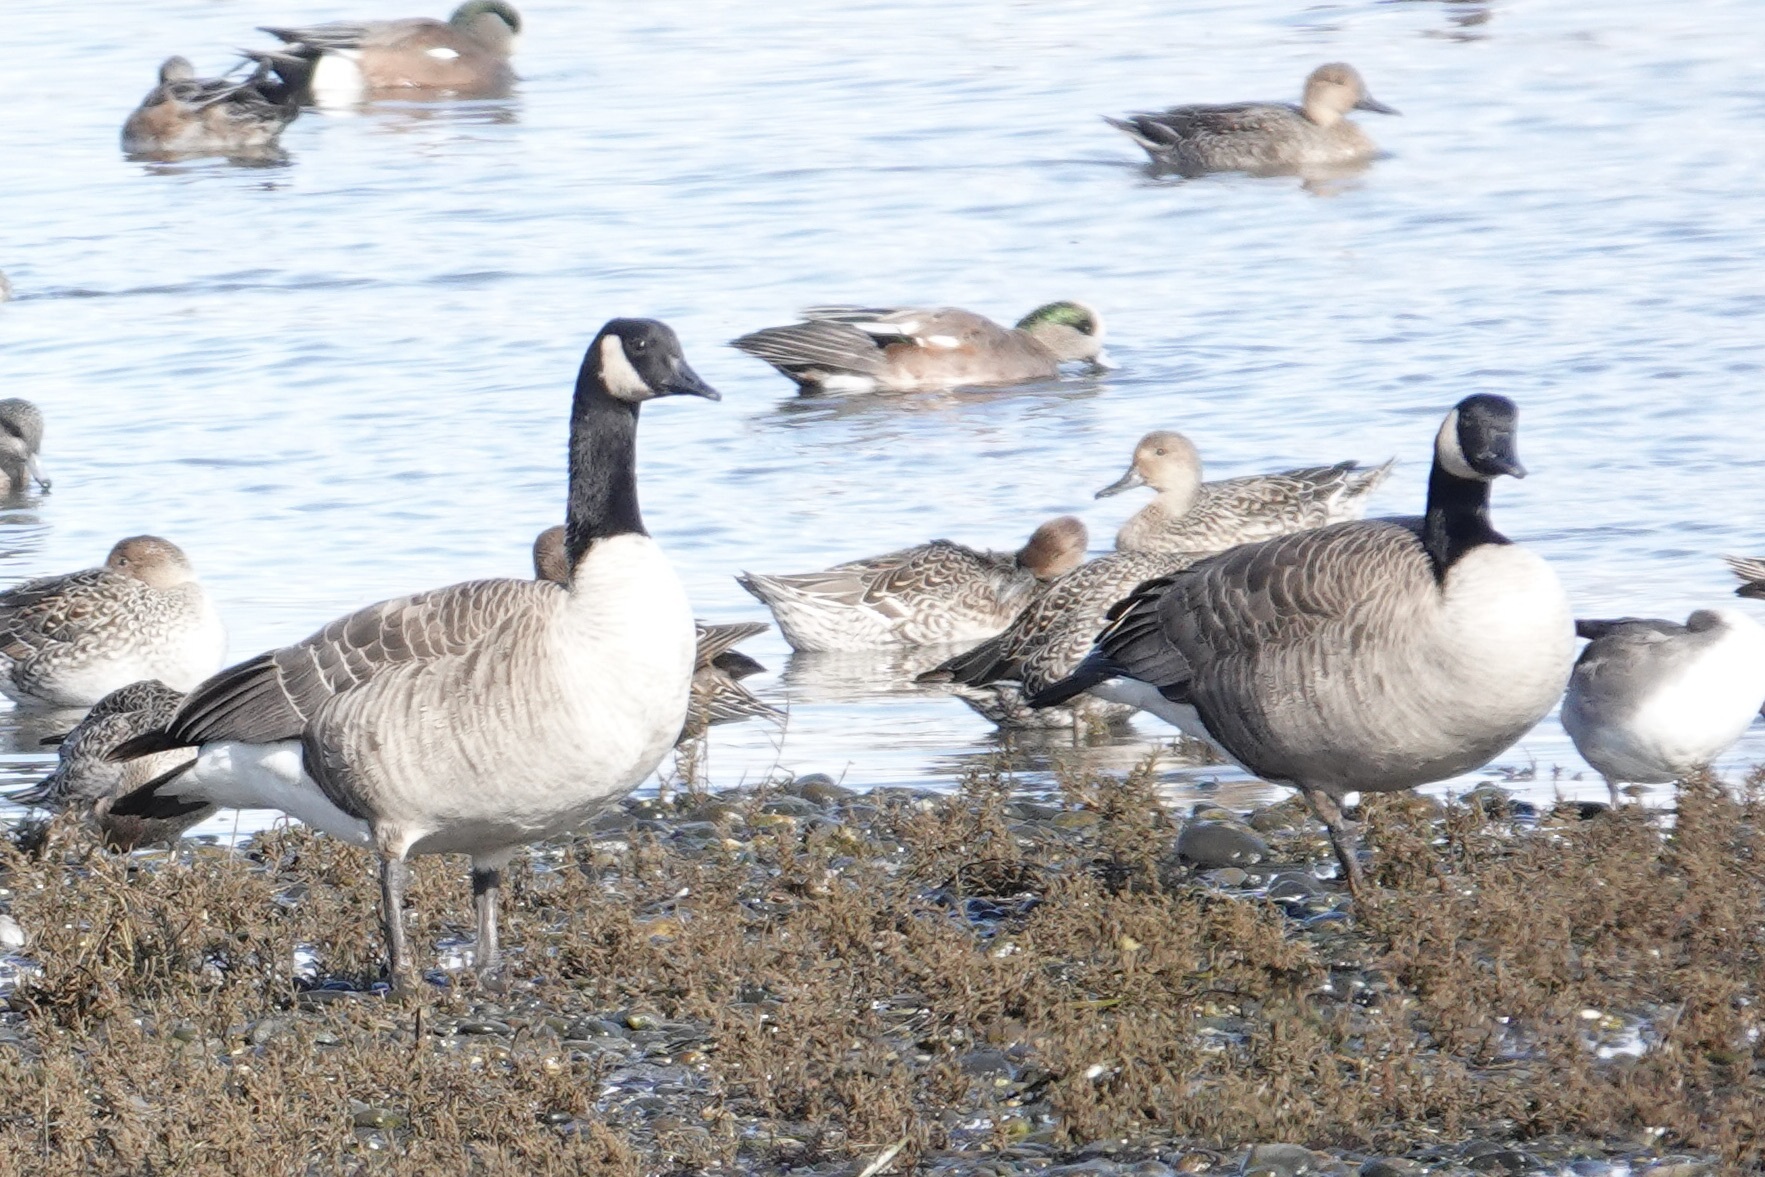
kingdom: Animalia
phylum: Chordata
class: Aves
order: Anseriformes
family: Anatidae
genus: Branta
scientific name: Branta canadensis
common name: Canada goose
